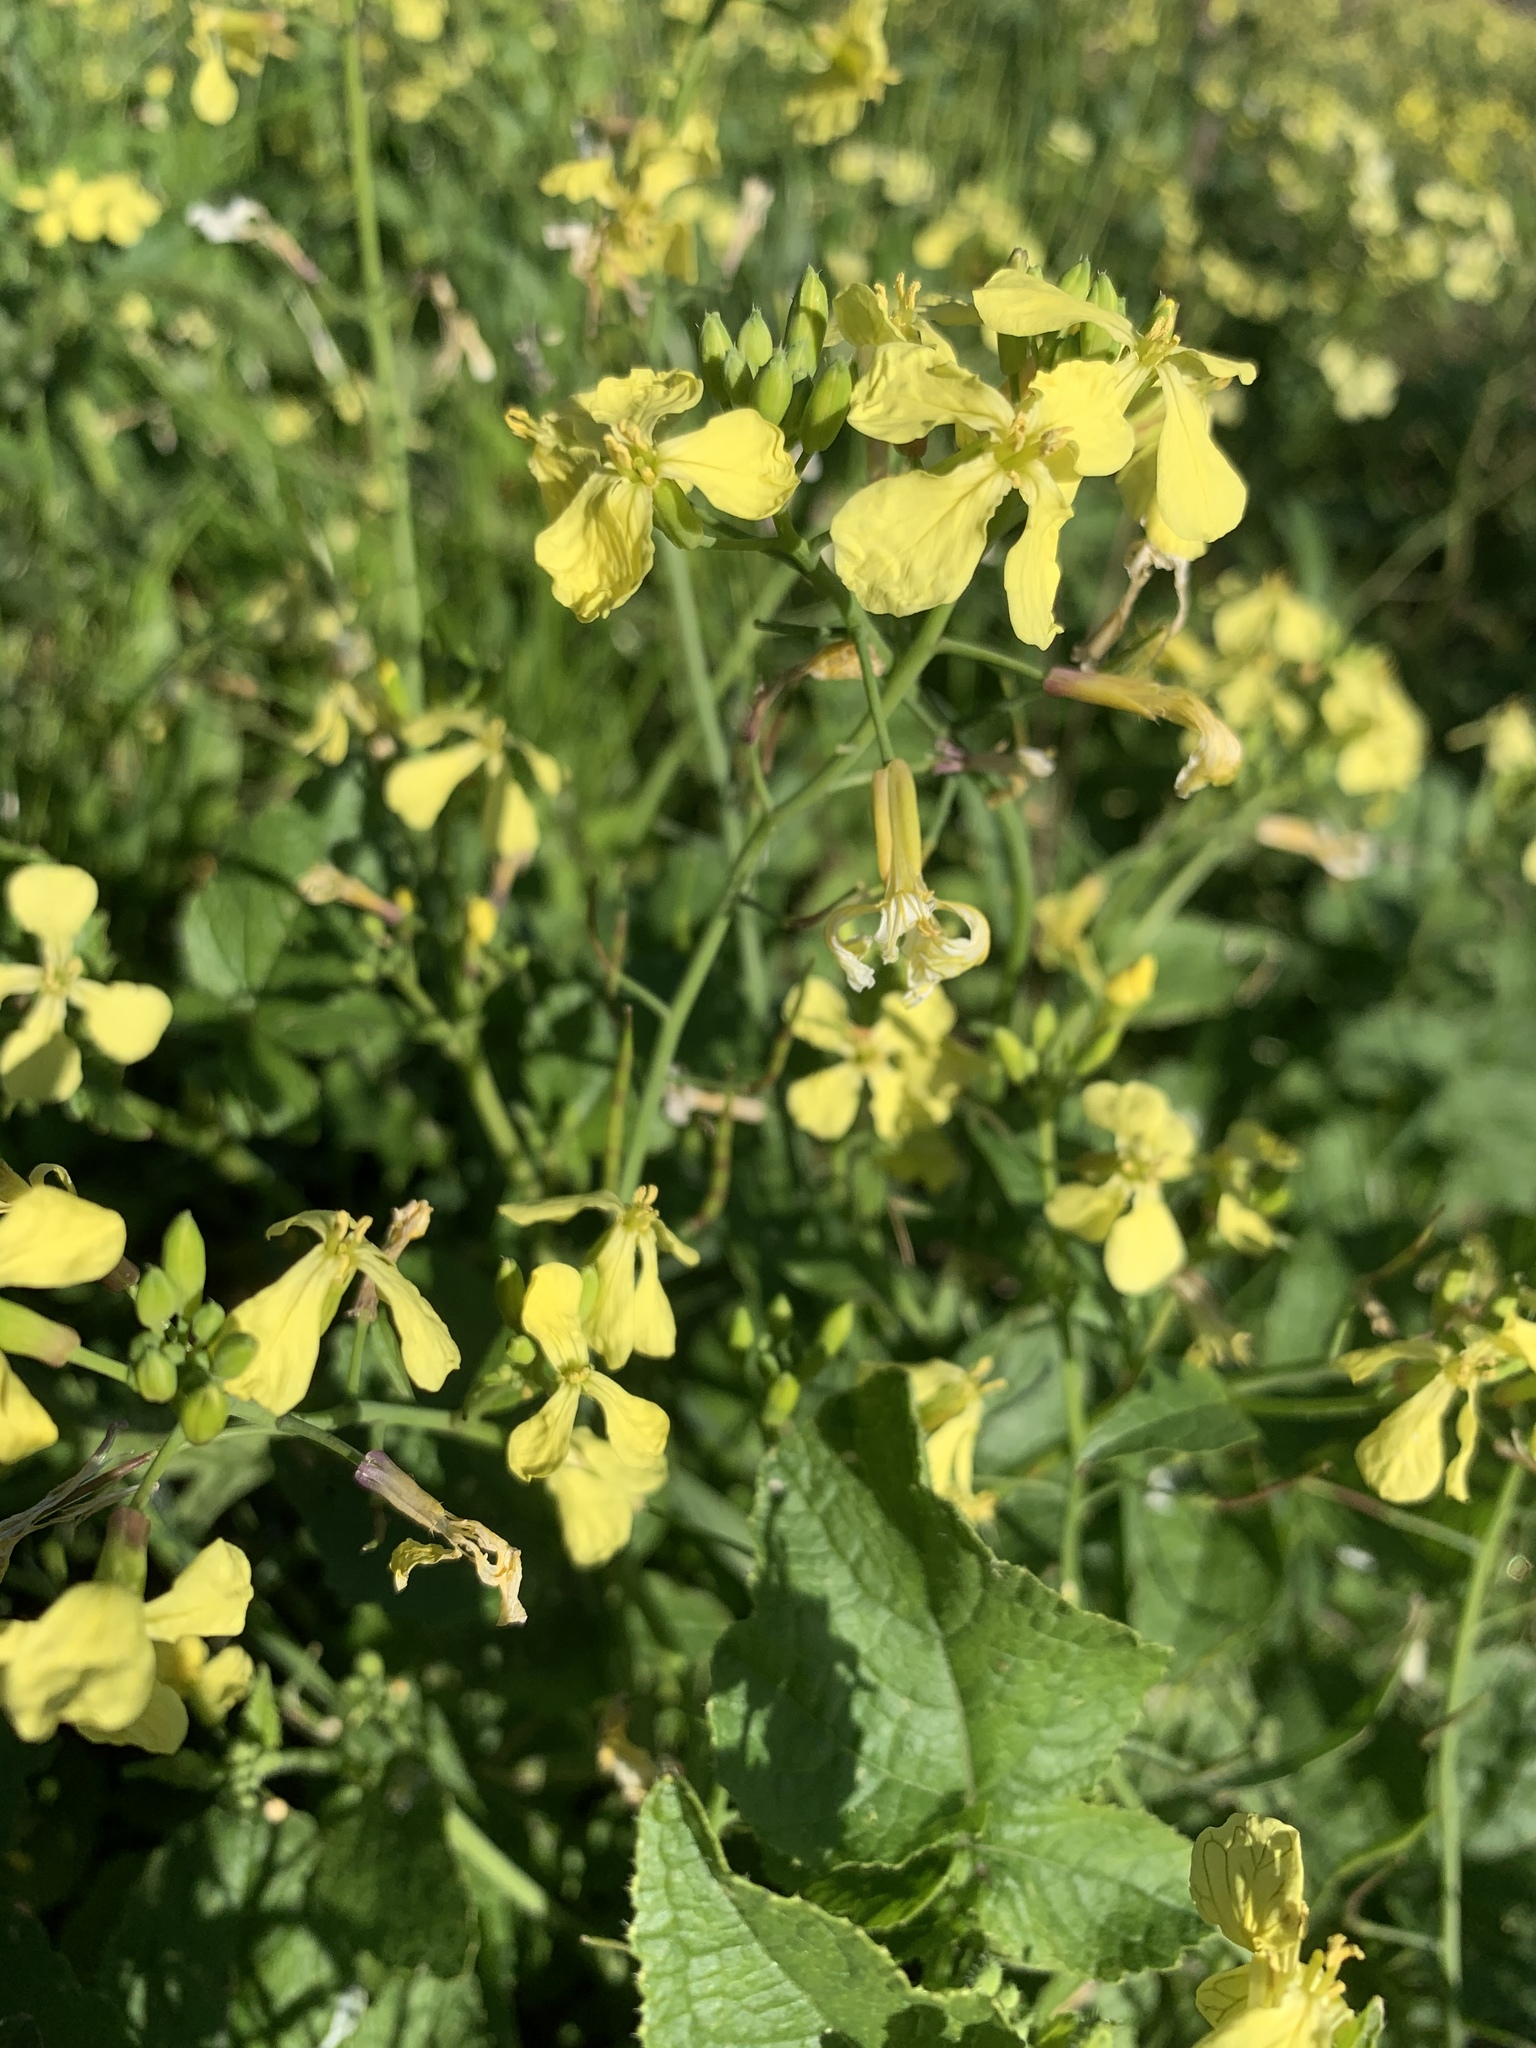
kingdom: Plantae
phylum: Tracheophyta
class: Magnoliopsida
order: Brassicales
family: Brassicaceae
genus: Raphanus
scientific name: Raphanus raphanistrum
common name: Wild radish
